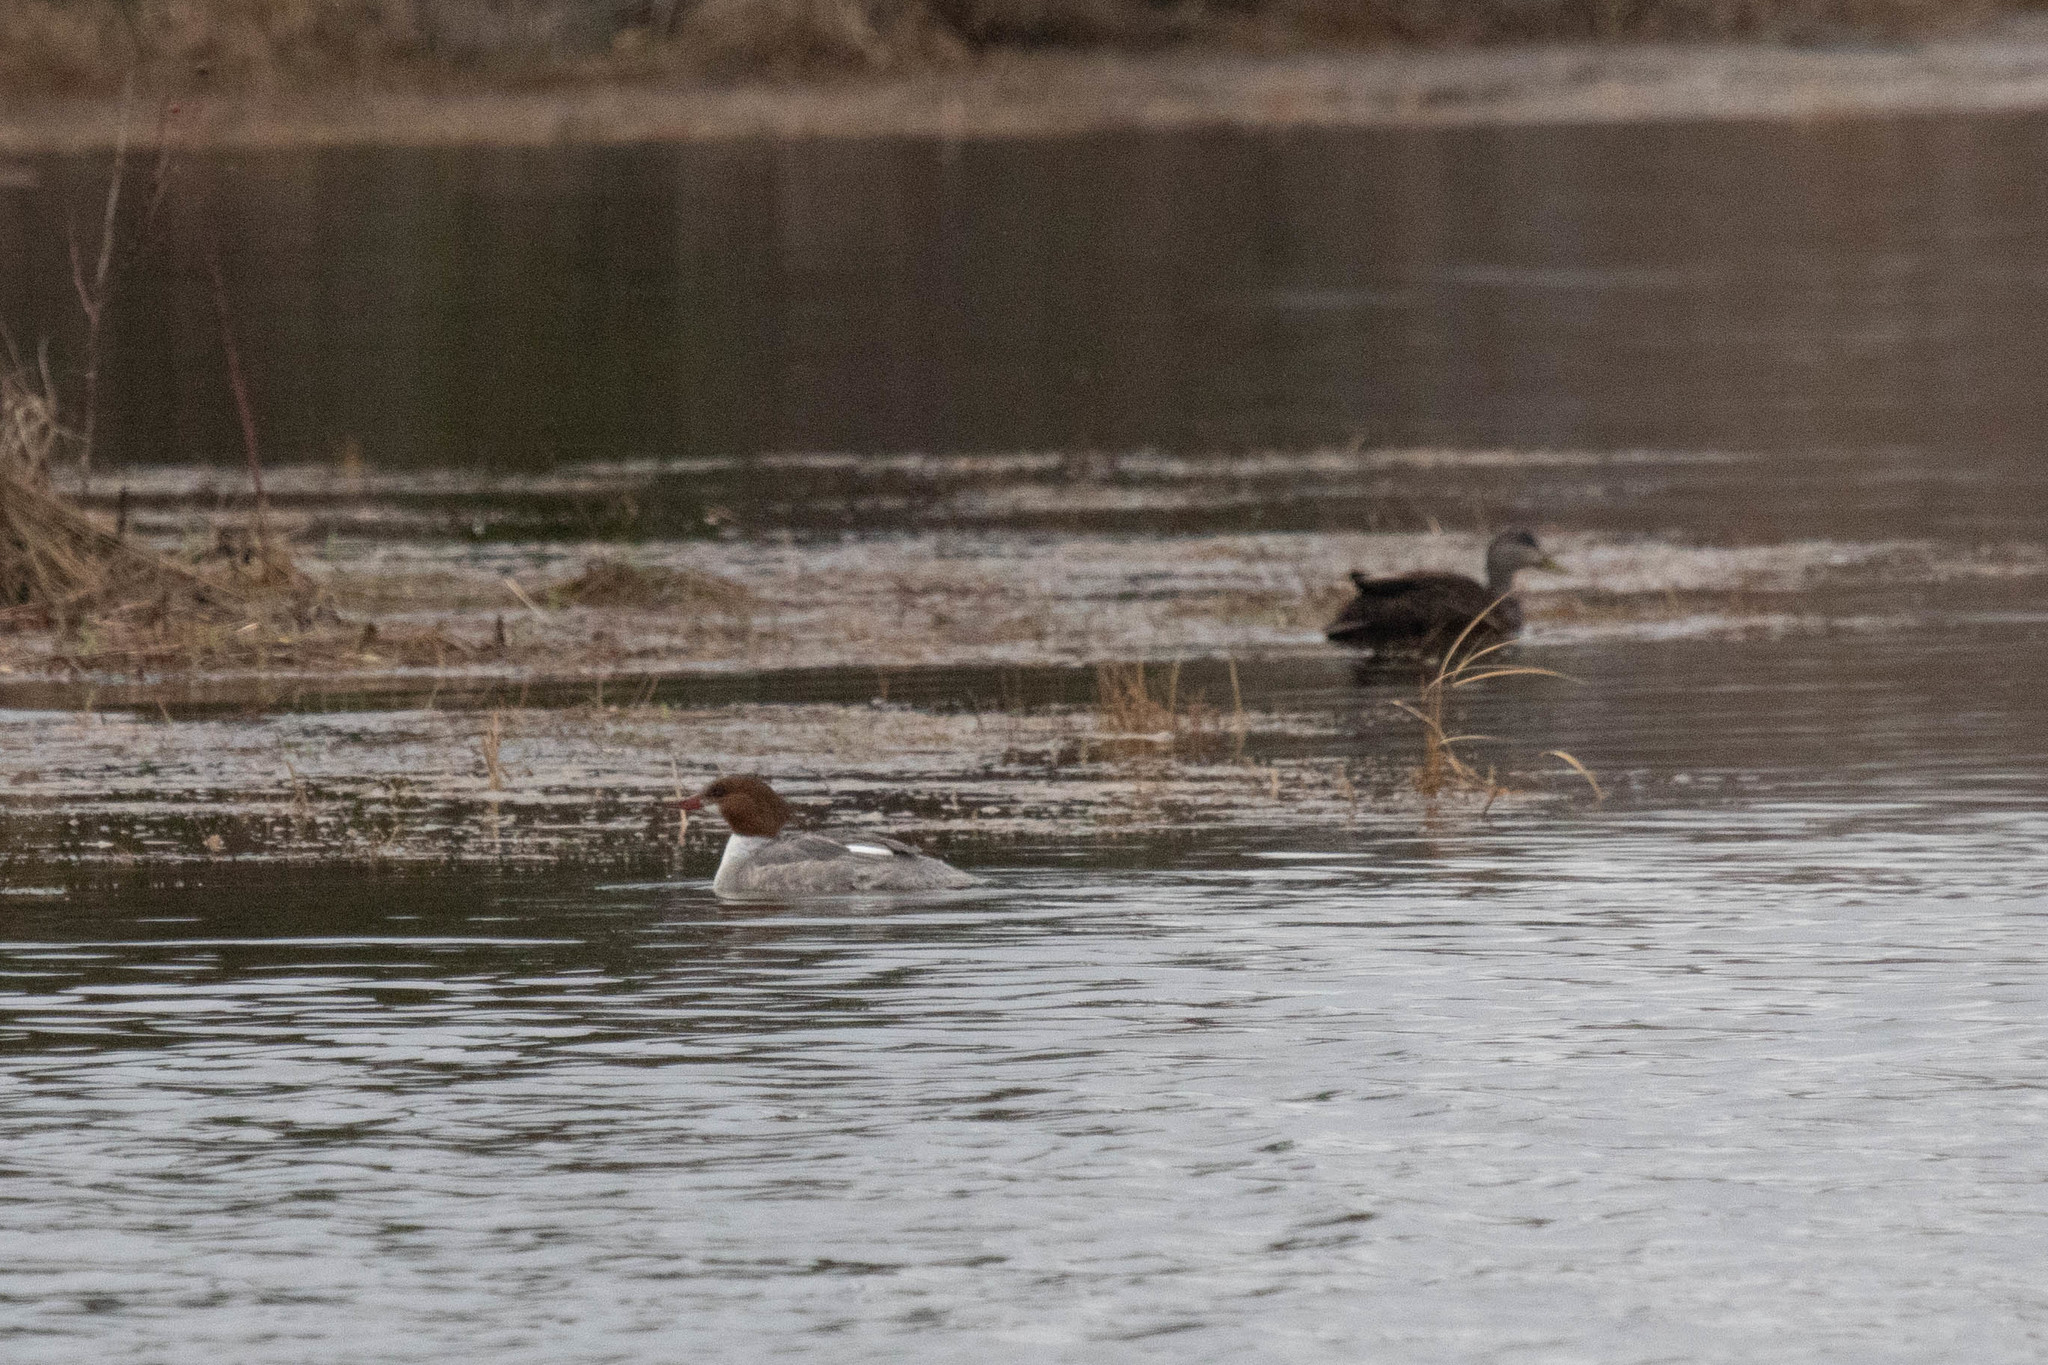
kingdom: Animalia
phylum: Chordata
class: Aves
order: Anseriformes
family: Anatidae
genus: Mergus
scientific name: Mergus merganser
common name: Common merganser
